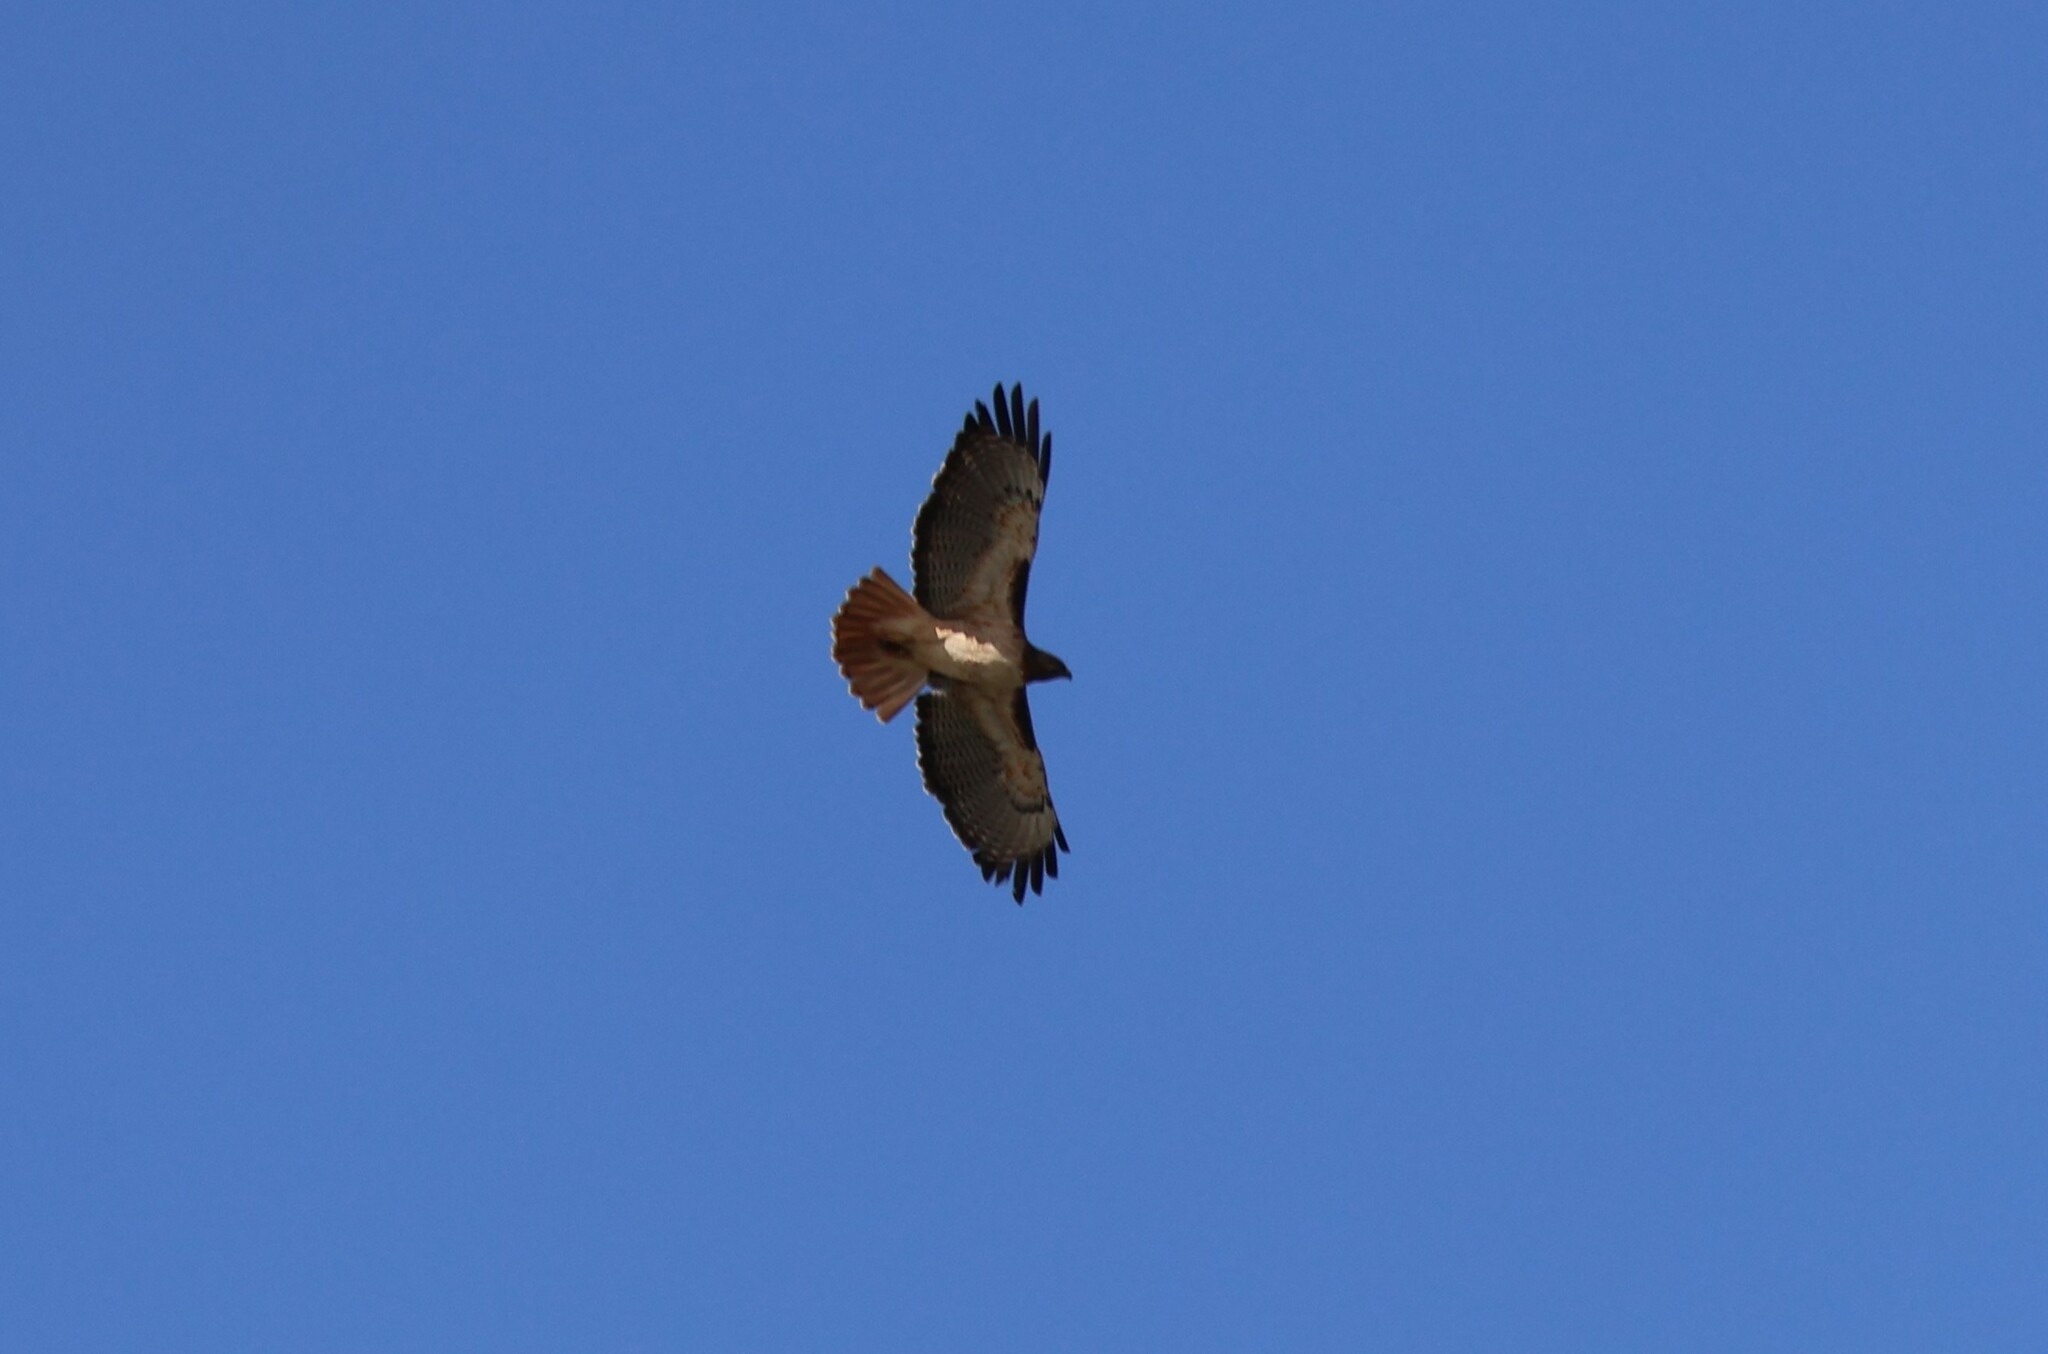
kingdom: Animalia
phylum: Chordata
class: Aves
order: Accipitriformes
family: Accipitridae
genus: Buteo
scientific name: Buteo jamaicensis
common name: Red-tailed hawk
